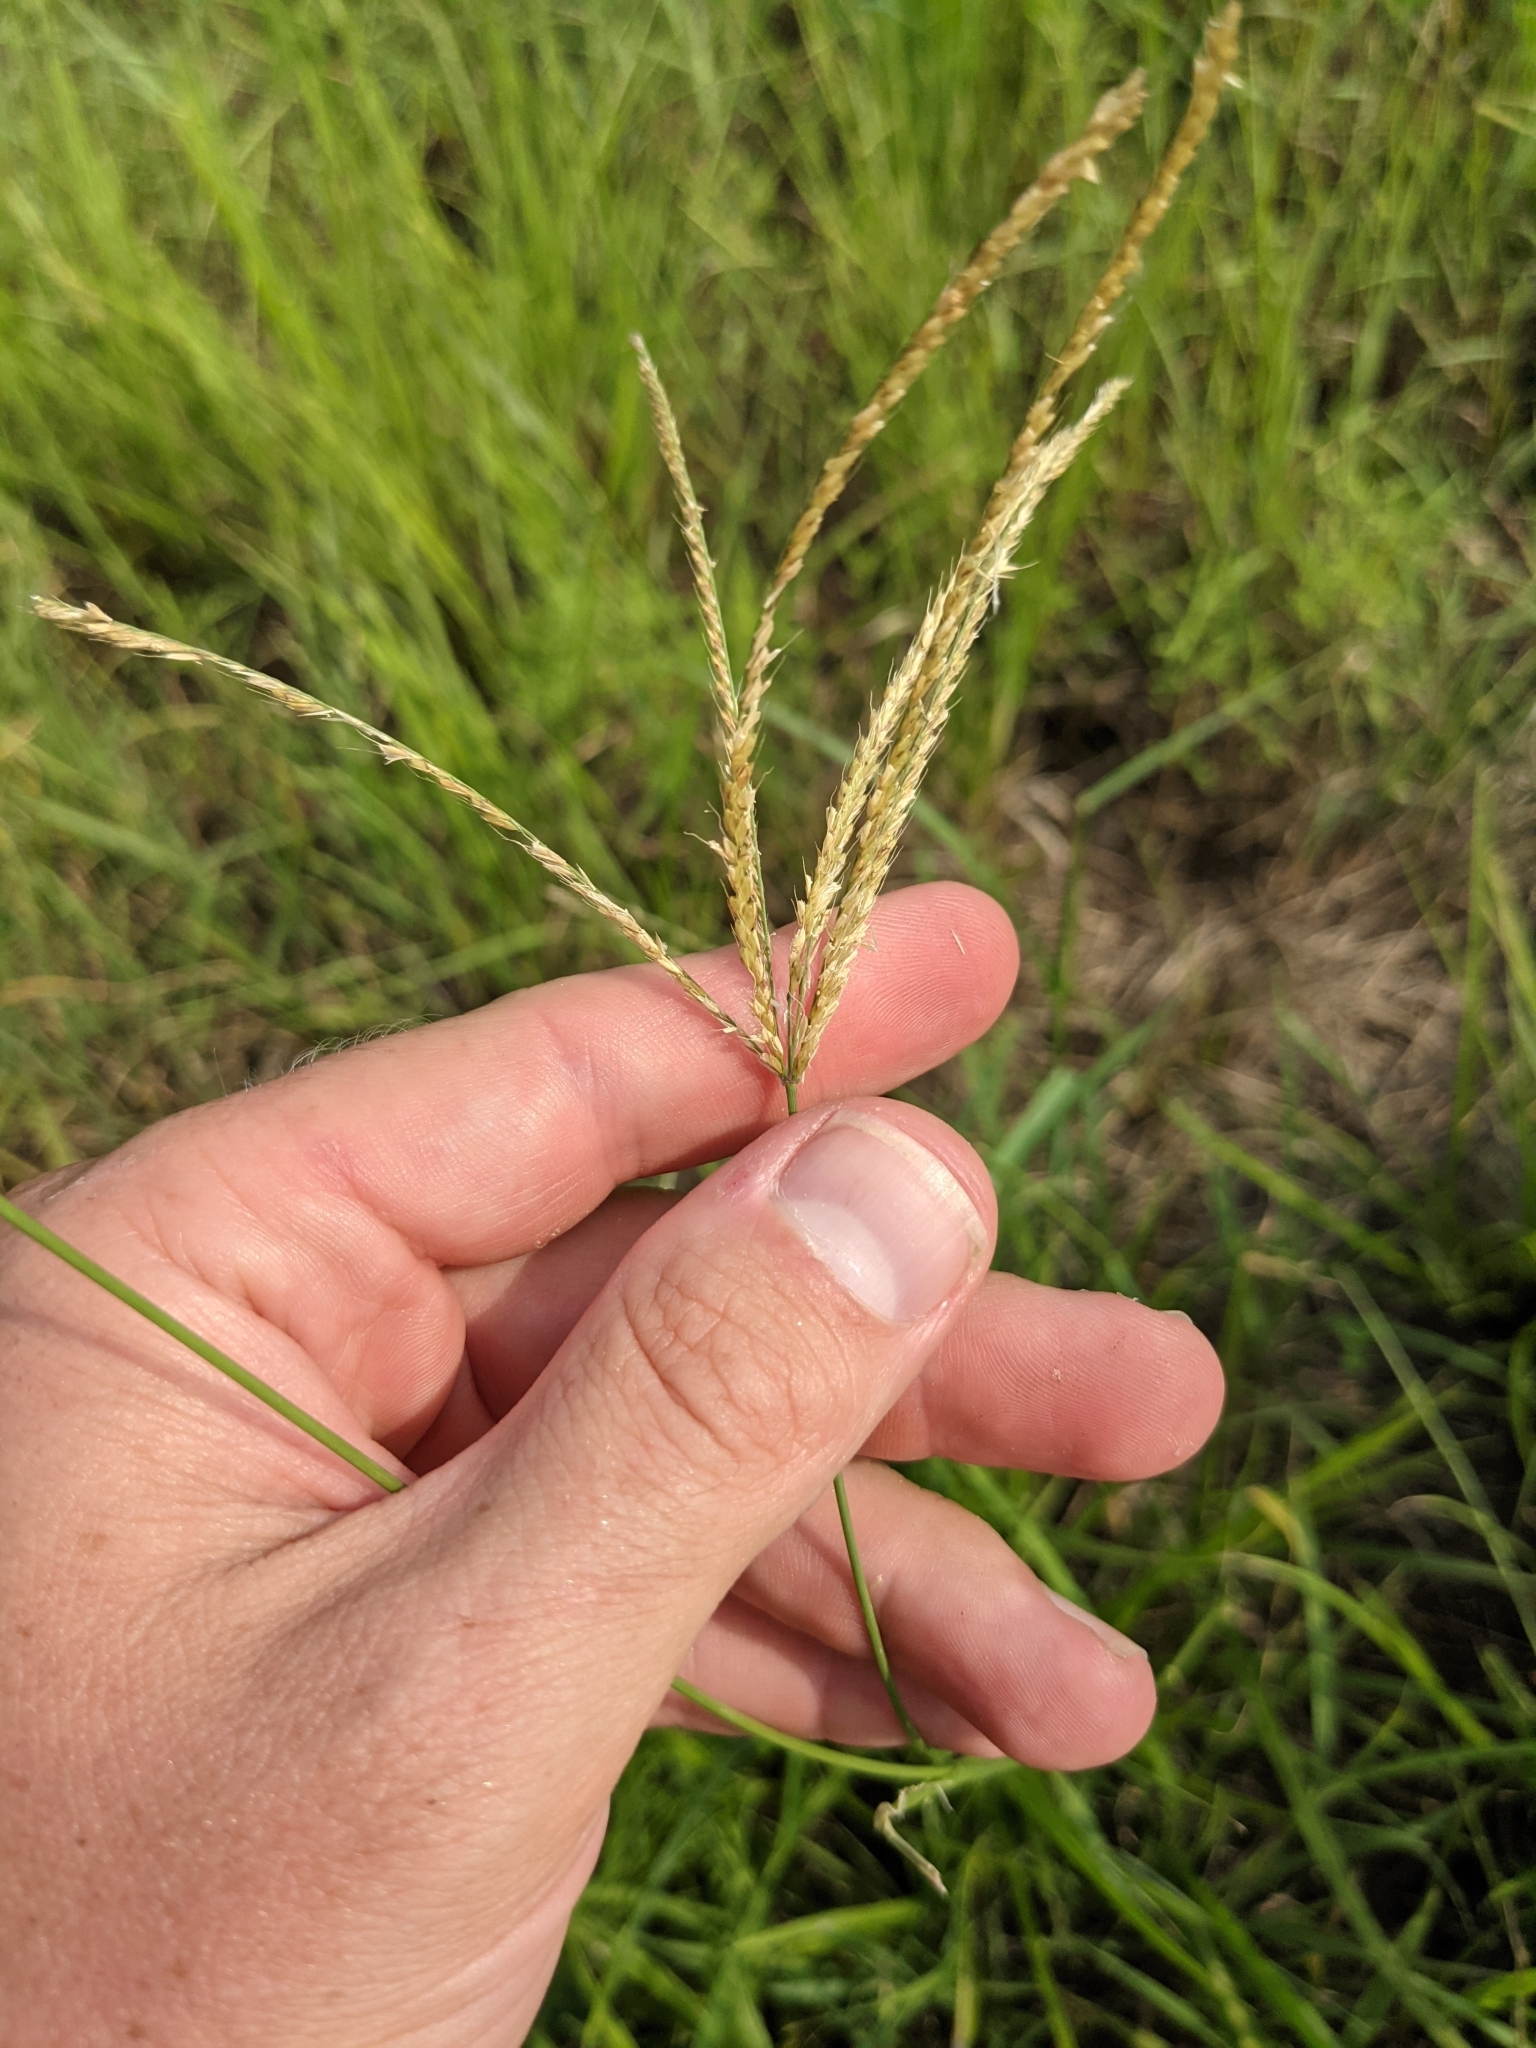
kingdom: Plantae
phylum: Tracheophyta
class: Liliopsida
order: Poales
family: Poaceae
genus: Chloris
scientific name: Chloris gayana
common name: Rhodes grass
